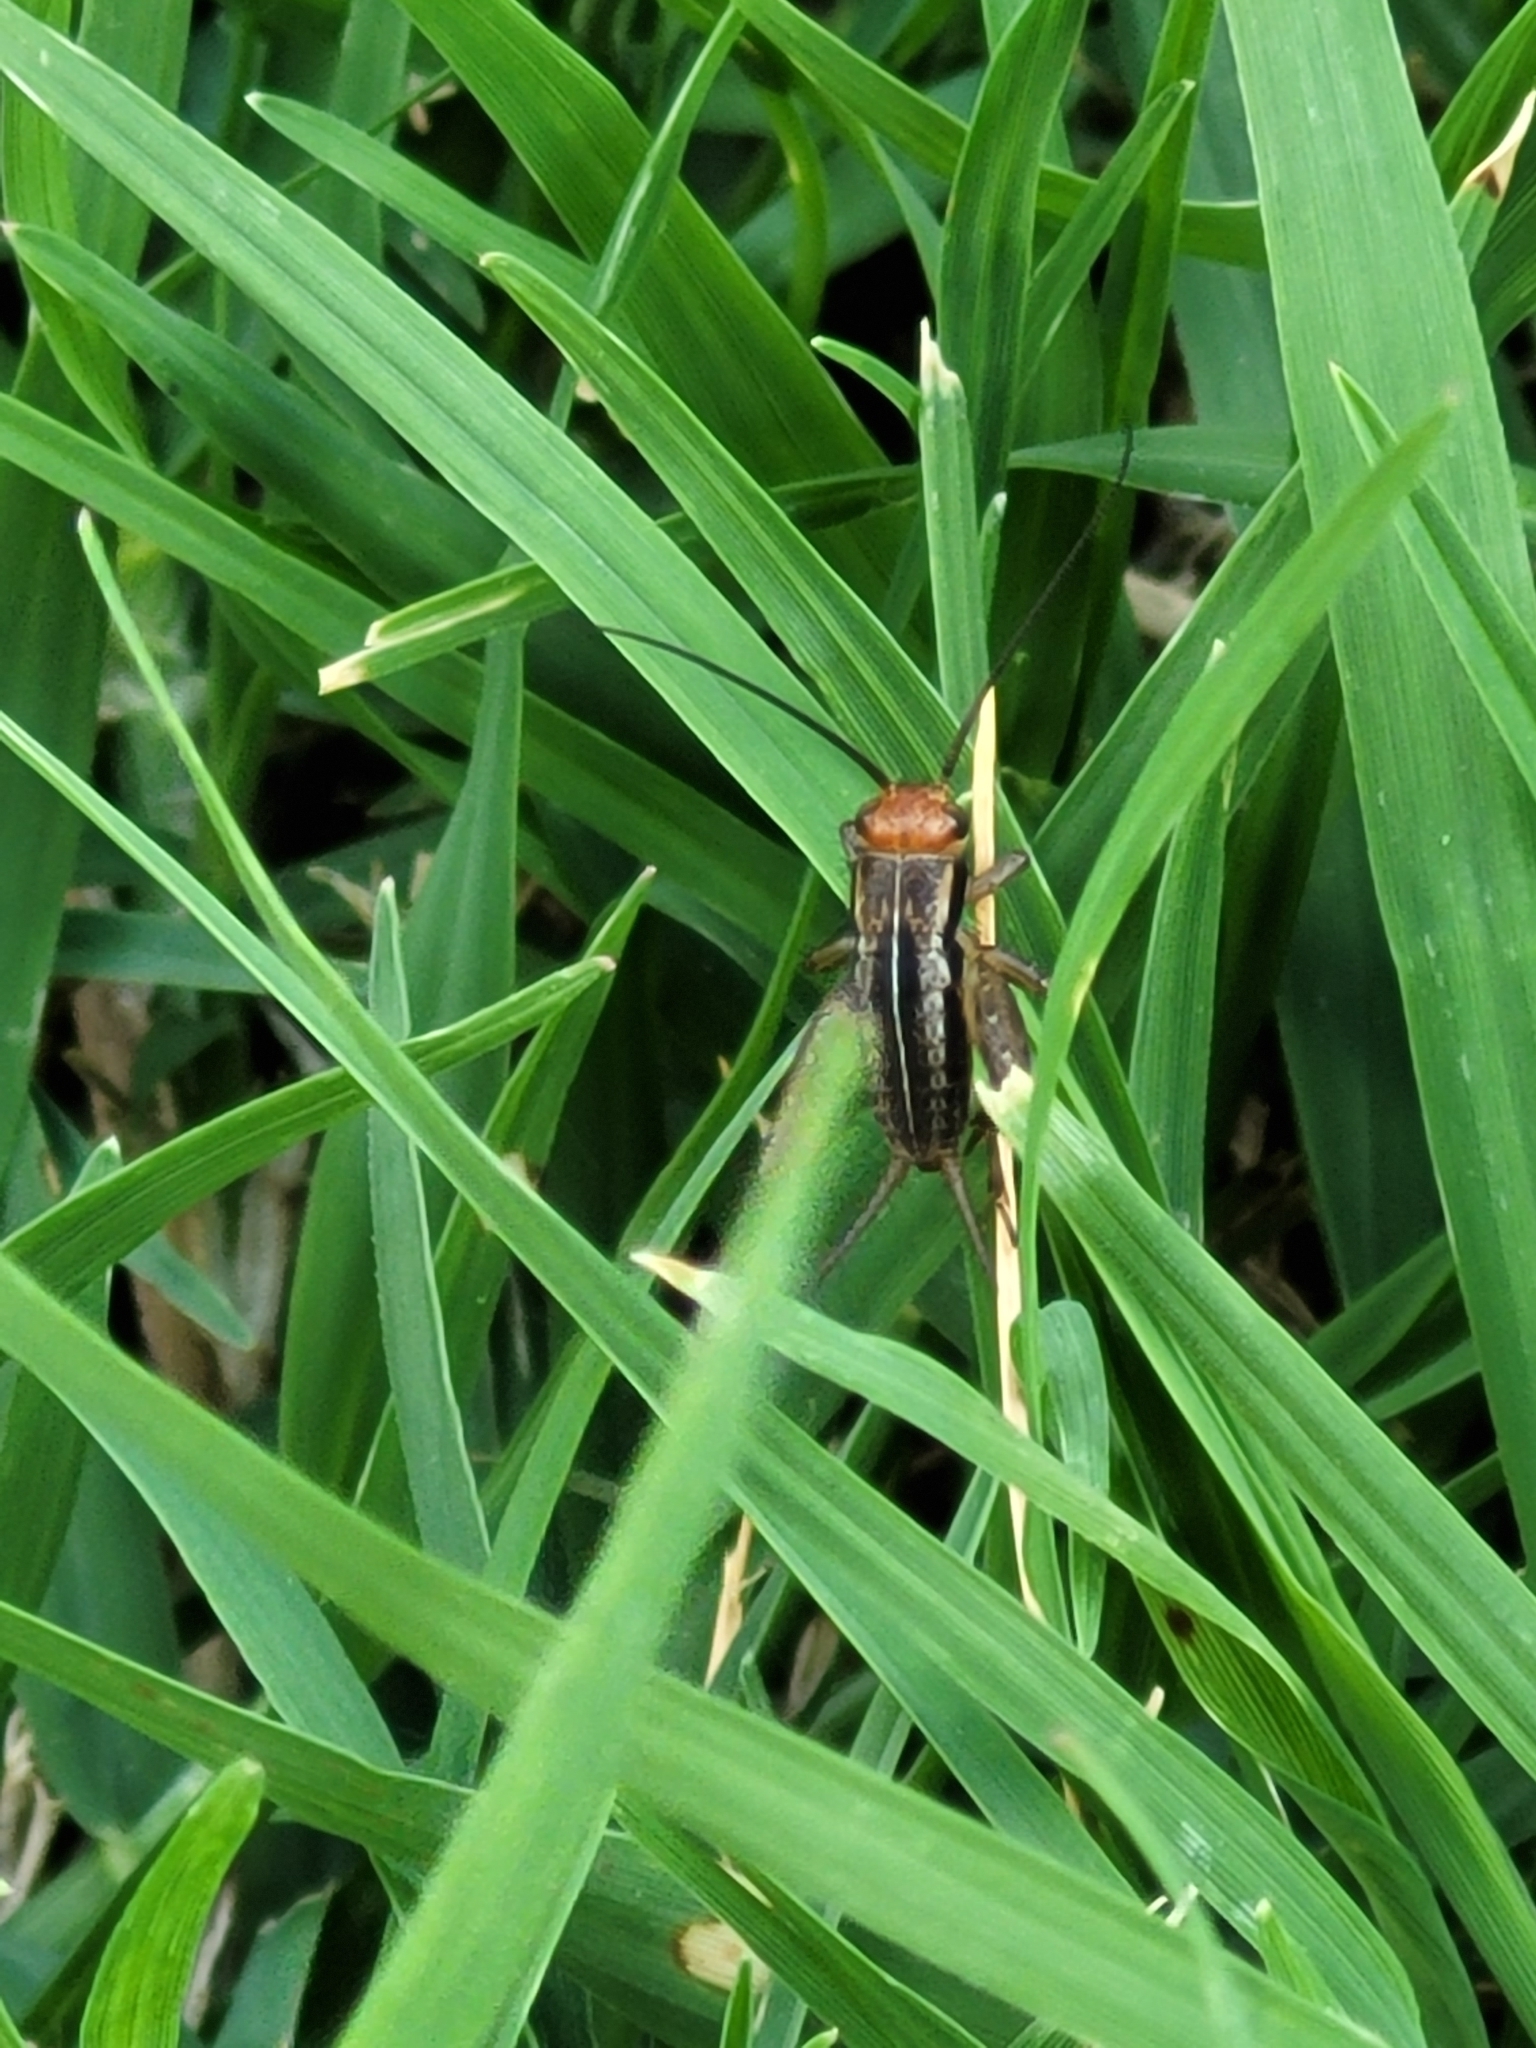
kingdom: Animalia
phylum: Arthropoda
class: Insecta
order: Orthoptera
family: Trigonidiidae
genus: Allonemobius
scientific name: Allonemobius fasciatus
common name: Striped ground cricket
